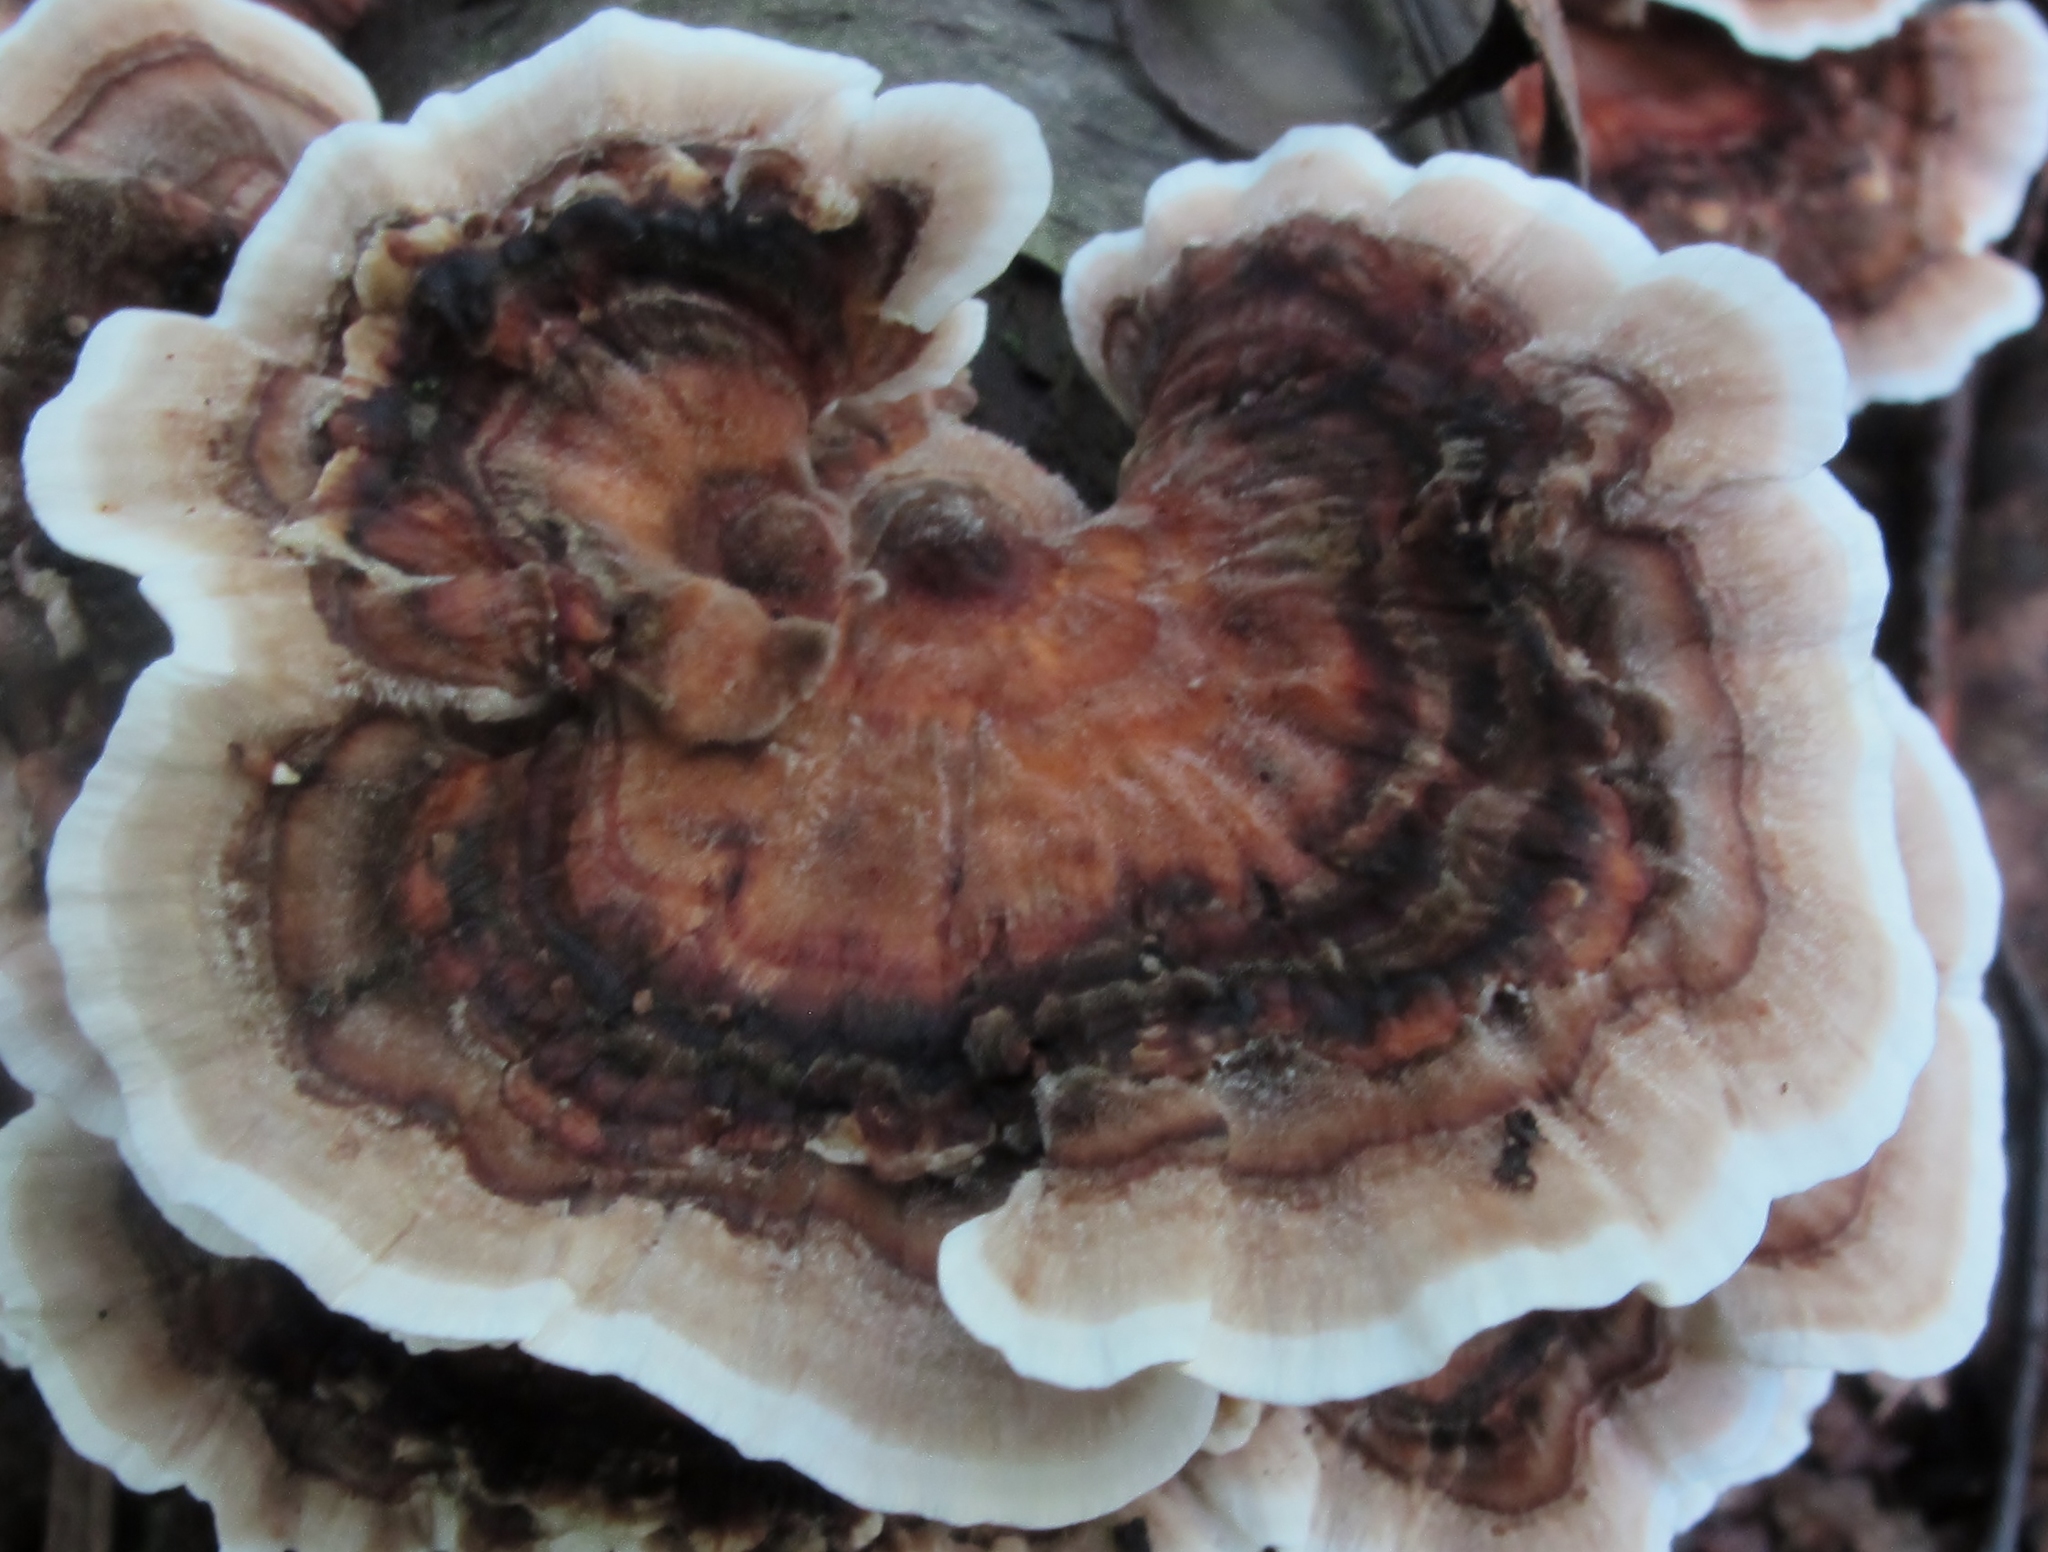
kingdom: Fungi
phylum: Basidiomycota
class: Agaricomycetes
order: Polyporales
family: Polyporaceae
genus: Trametes
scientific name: Trametes versicolor
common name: Turkeytail
